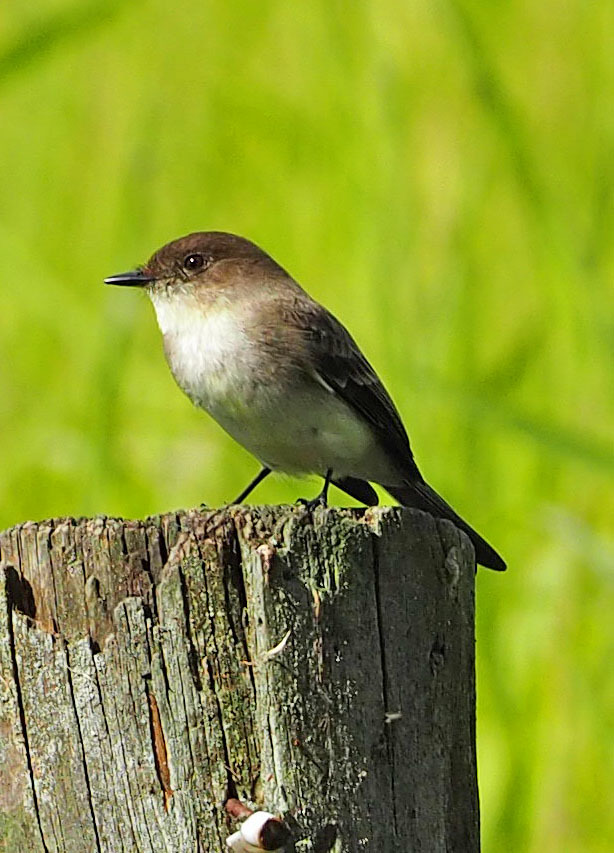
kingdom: Animalia
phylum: Chordata
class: Aves
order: Passeriformes
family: Tyrannidae
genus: Sayornis
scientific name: Sayornis phoebe
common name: Eastern phoebe
